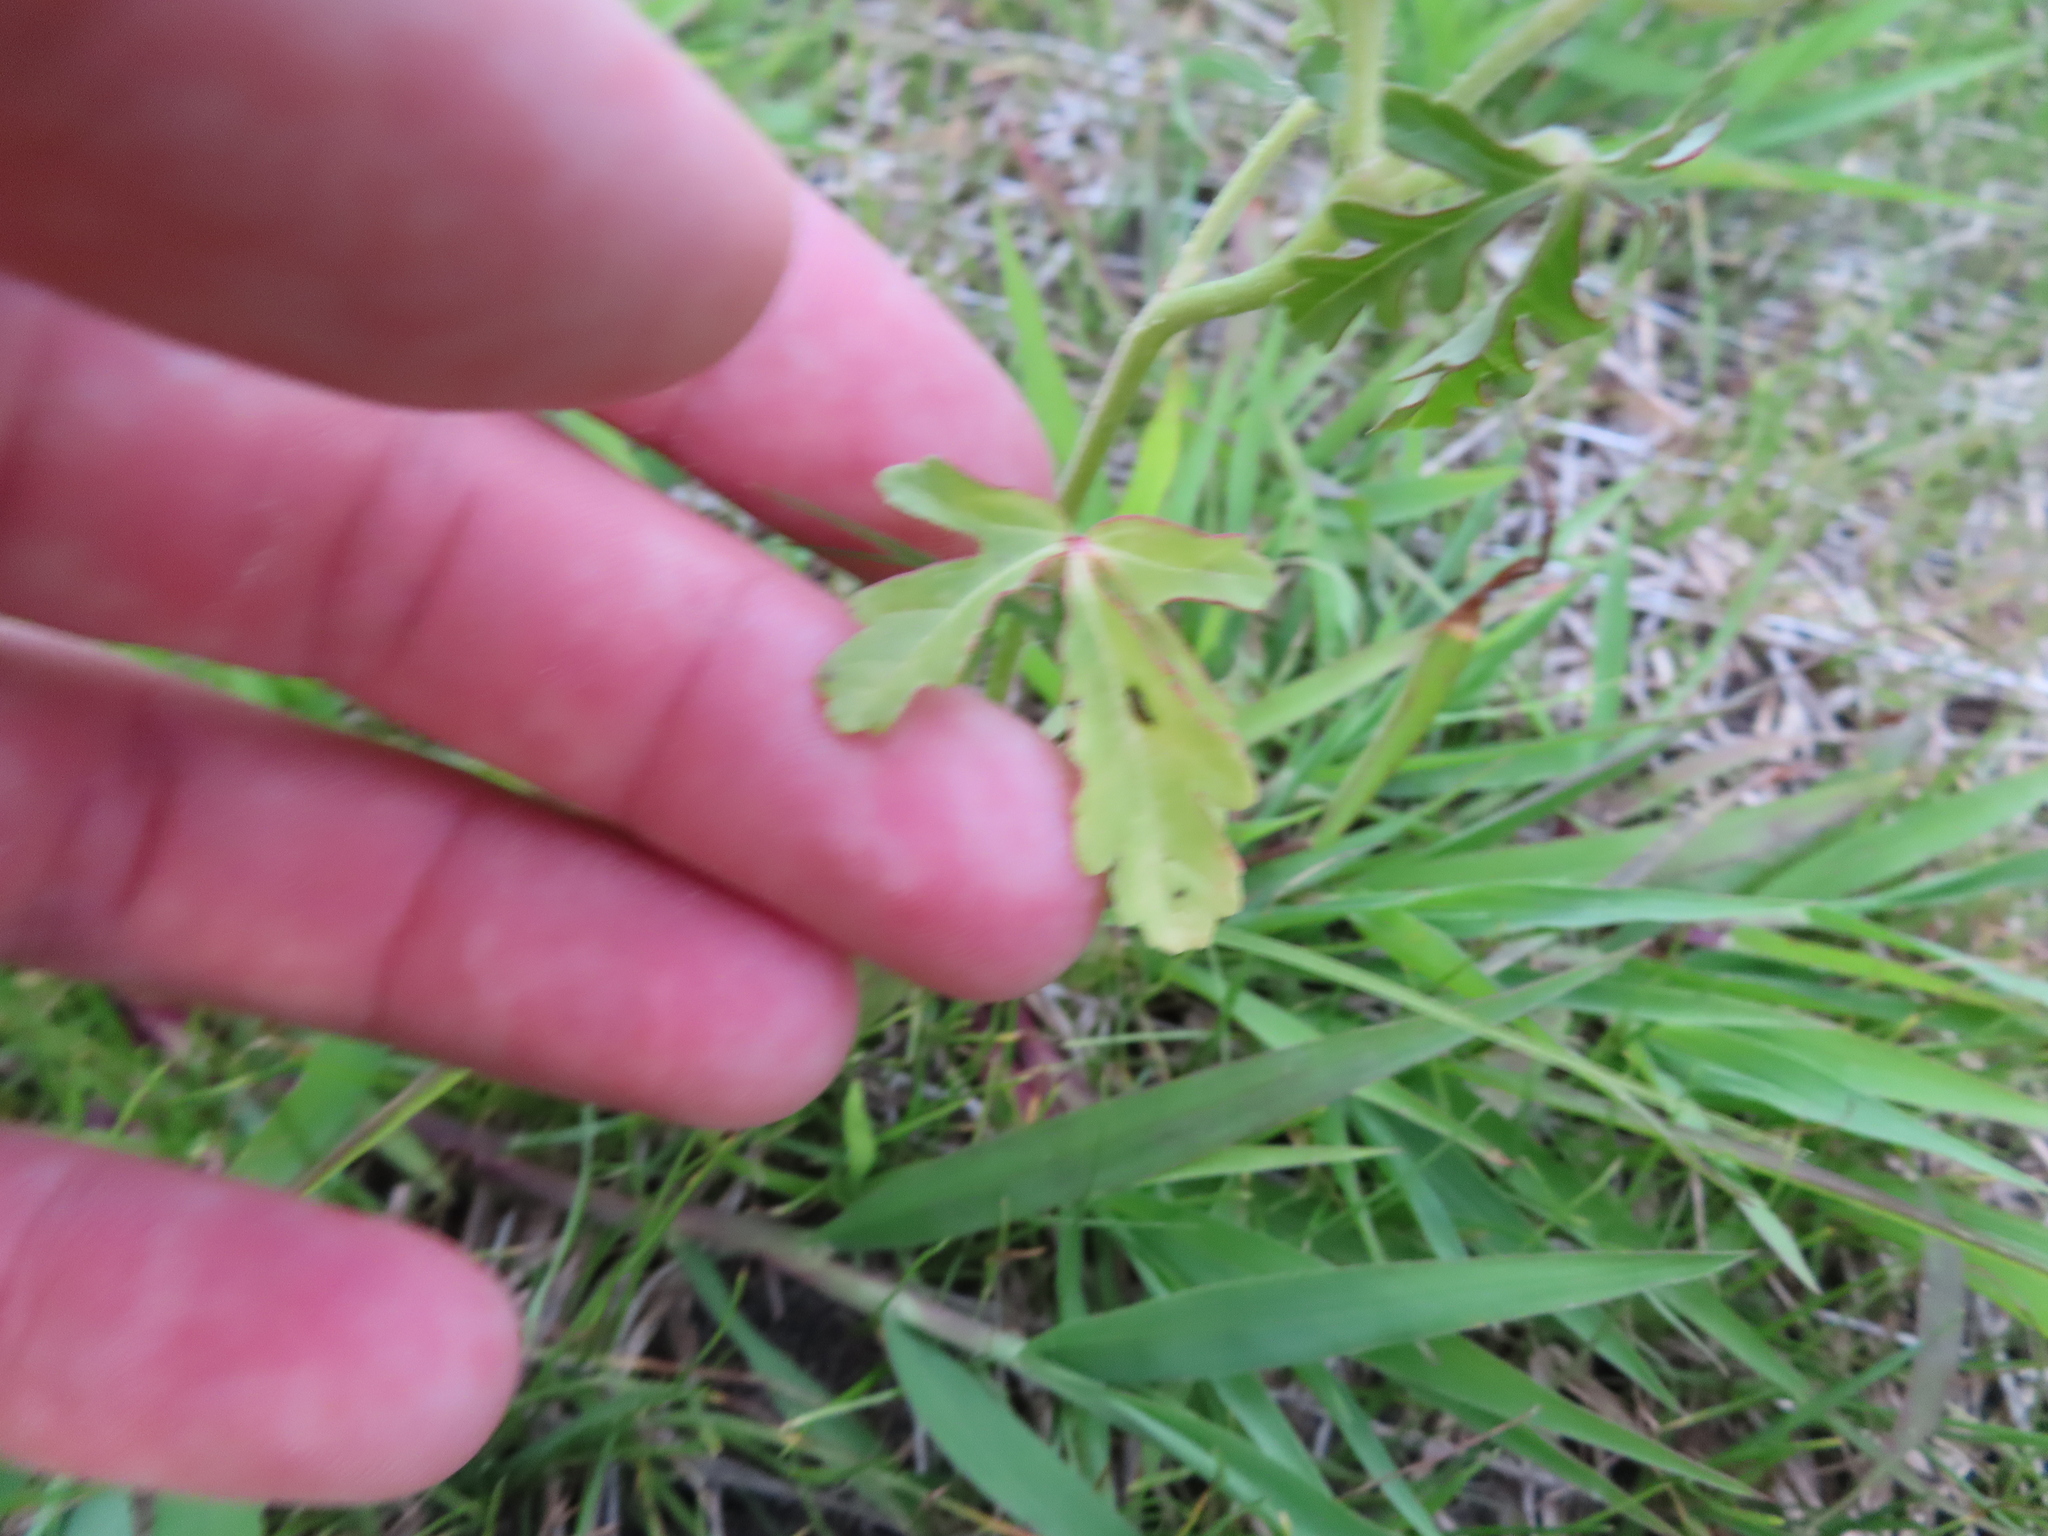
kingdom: Plantae
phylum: Tracheophyta
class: Magnoliopsida
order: Malvales
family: Malvaceae
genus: Hibiscus
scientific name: Hibiscus trionum
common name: Bladder ketmia
